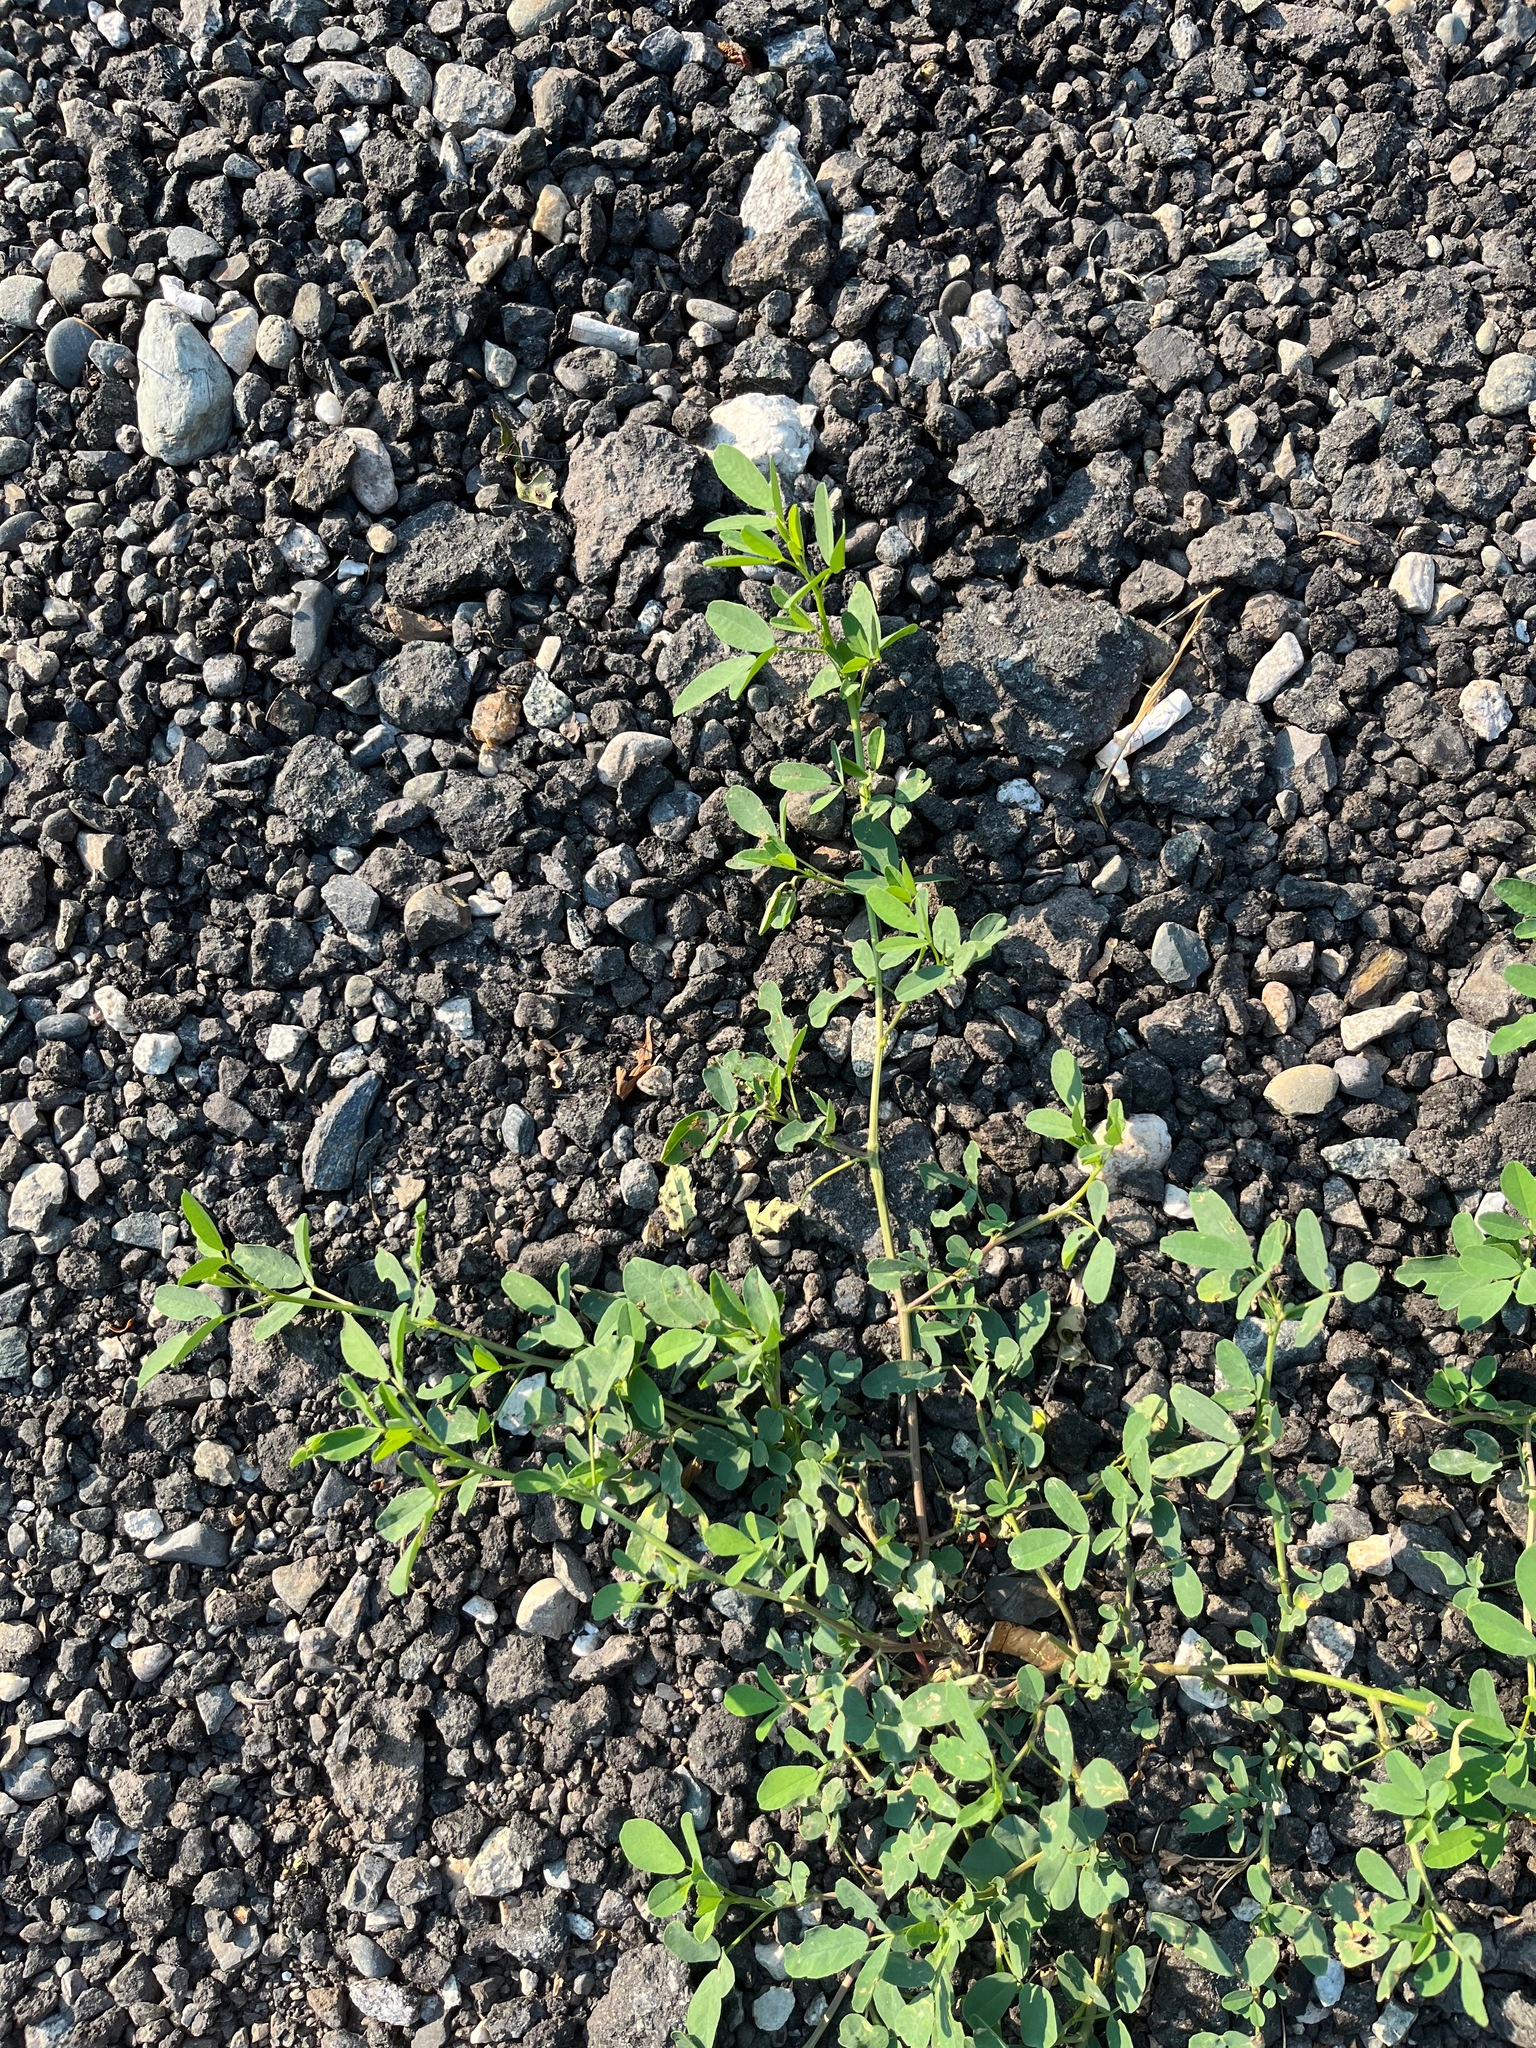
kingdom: Plantae
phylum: Tracheophyta
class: Magnoliopsida
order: Fabales
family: Fabaceae
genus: Melilotus
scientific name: Melilotus
